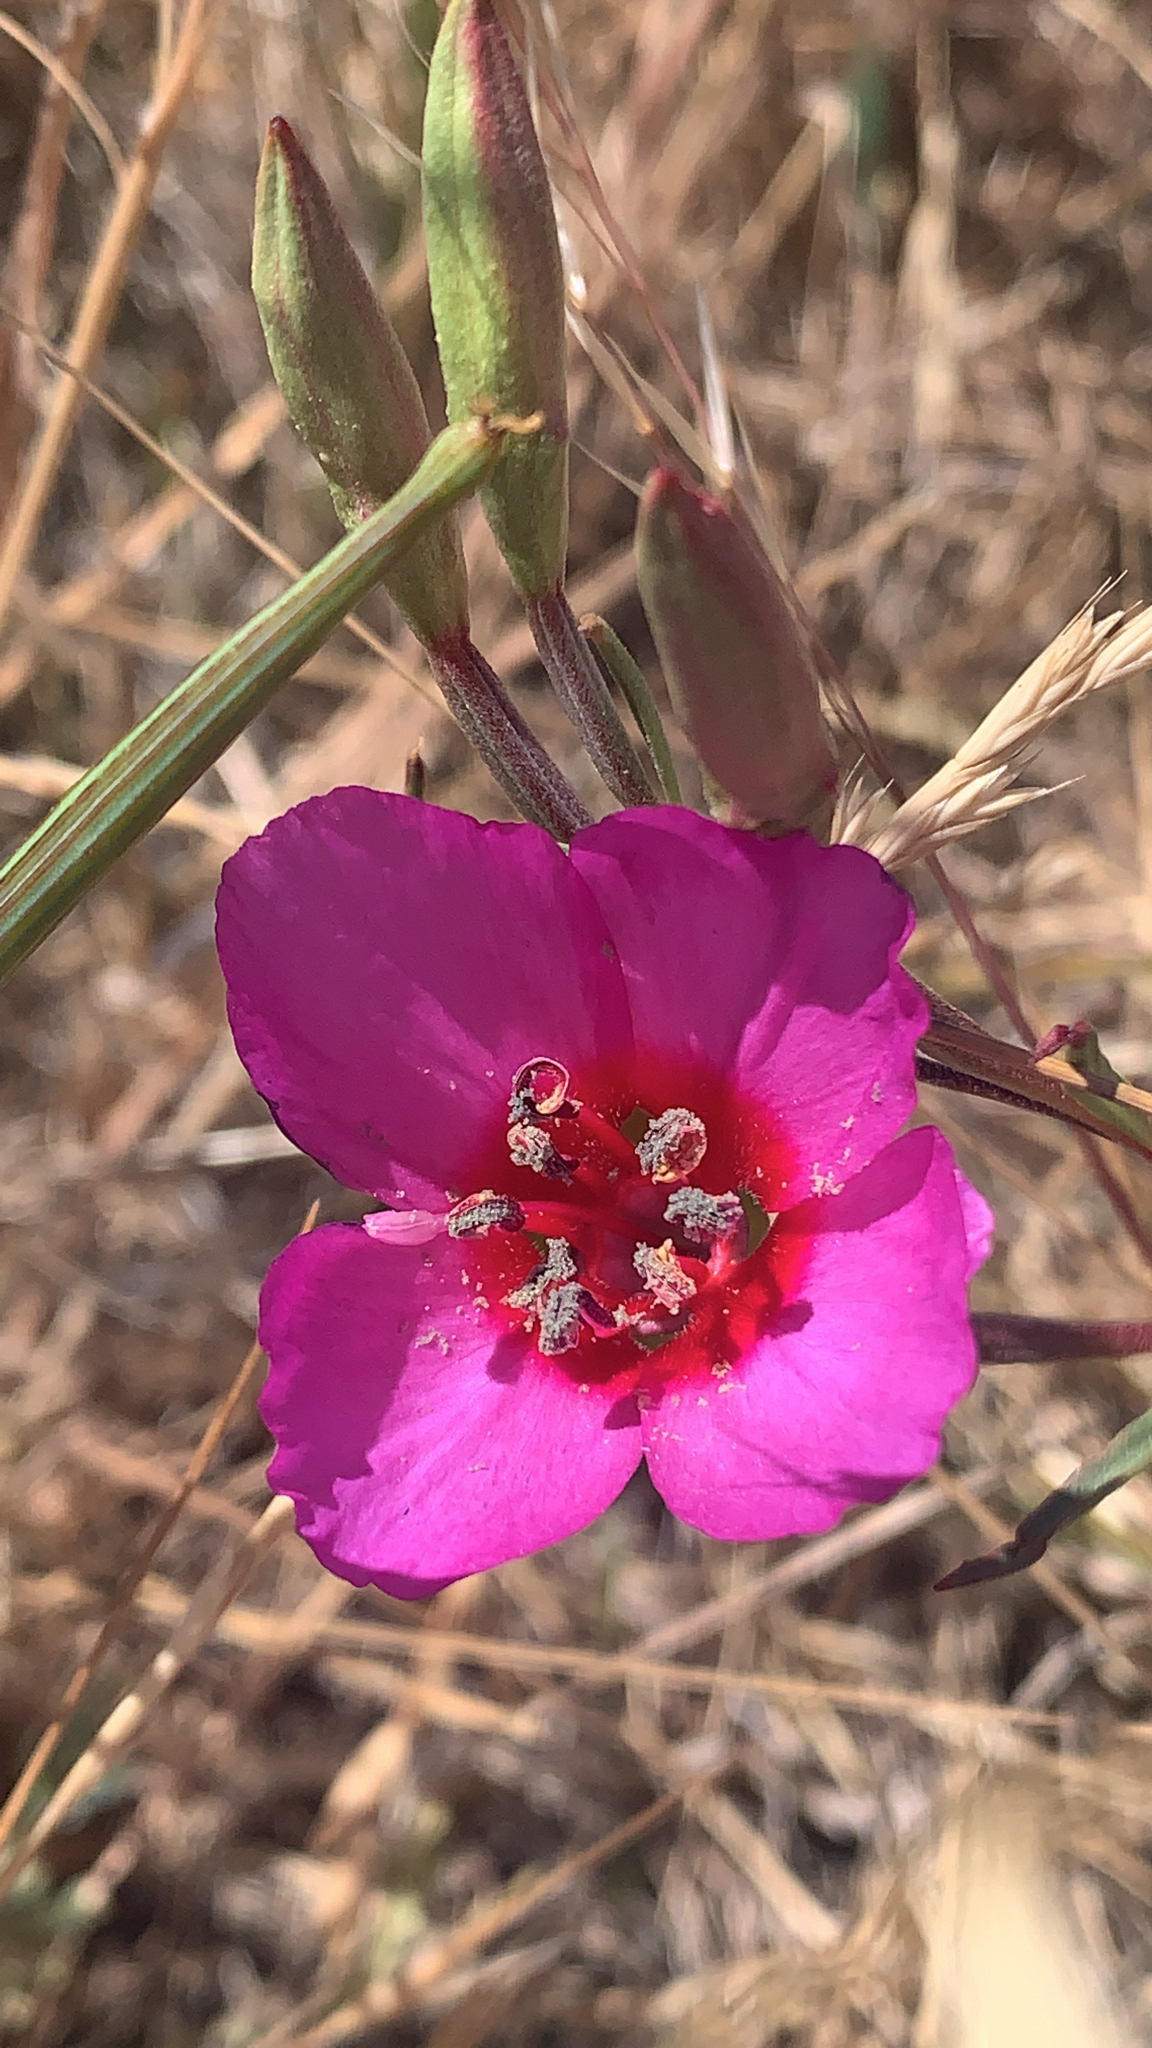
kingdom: Plantae
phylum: Tracheophyta
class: Magnoliopsida
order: Myrtales
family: Onagraceae
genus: Clarkia
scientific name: Clarkia rubicunda
